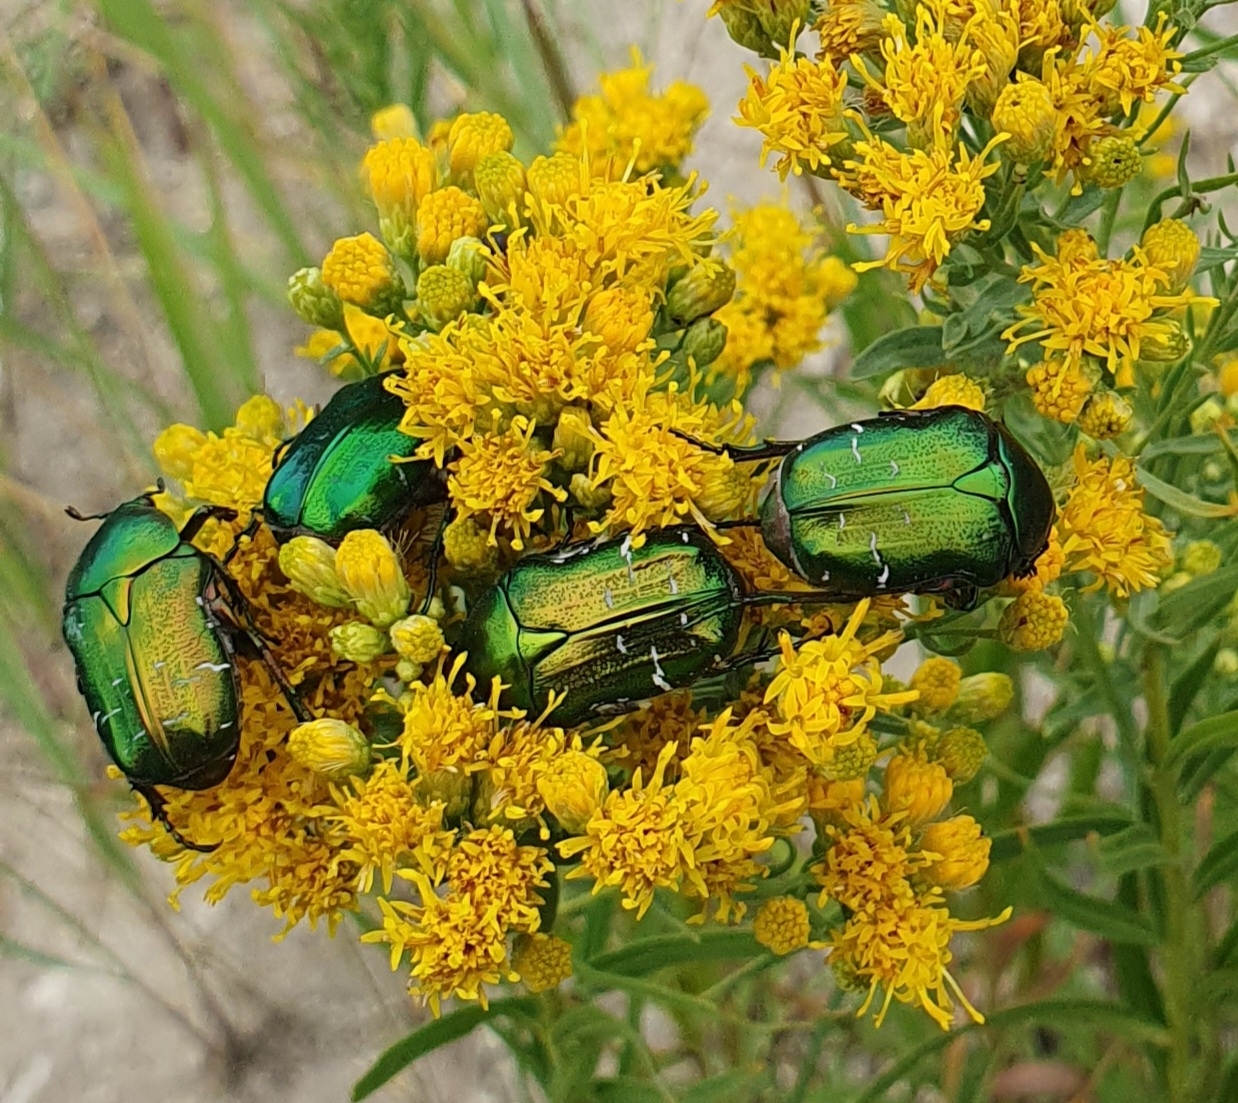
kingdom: Animalia
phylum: Arthropoda
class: Insecta
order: Coleoptera
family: Scarabaeidae
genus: Cetonia
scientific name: Cetonia aurata
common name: Rose chafer
